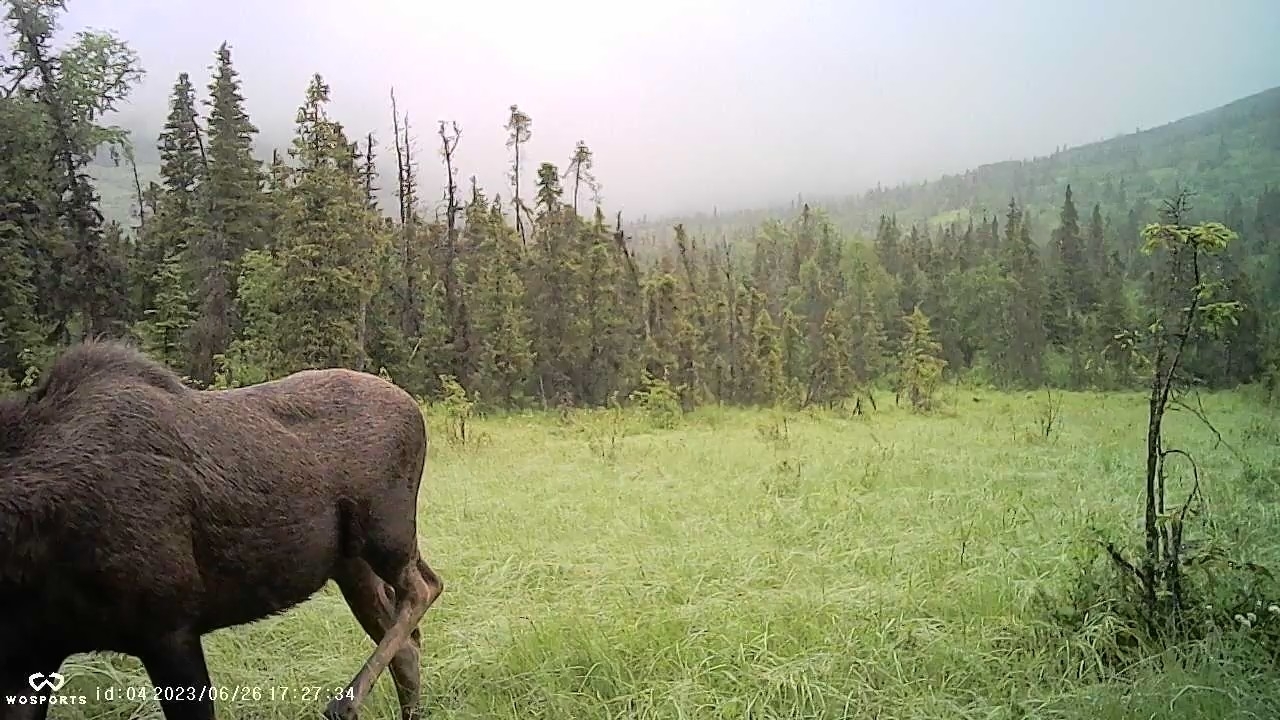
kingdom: Animalia
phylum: Chordata
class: Mammalia
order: Artiodactyla
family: Cervidae
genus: Alces
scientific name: Alces alces
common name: Moose
